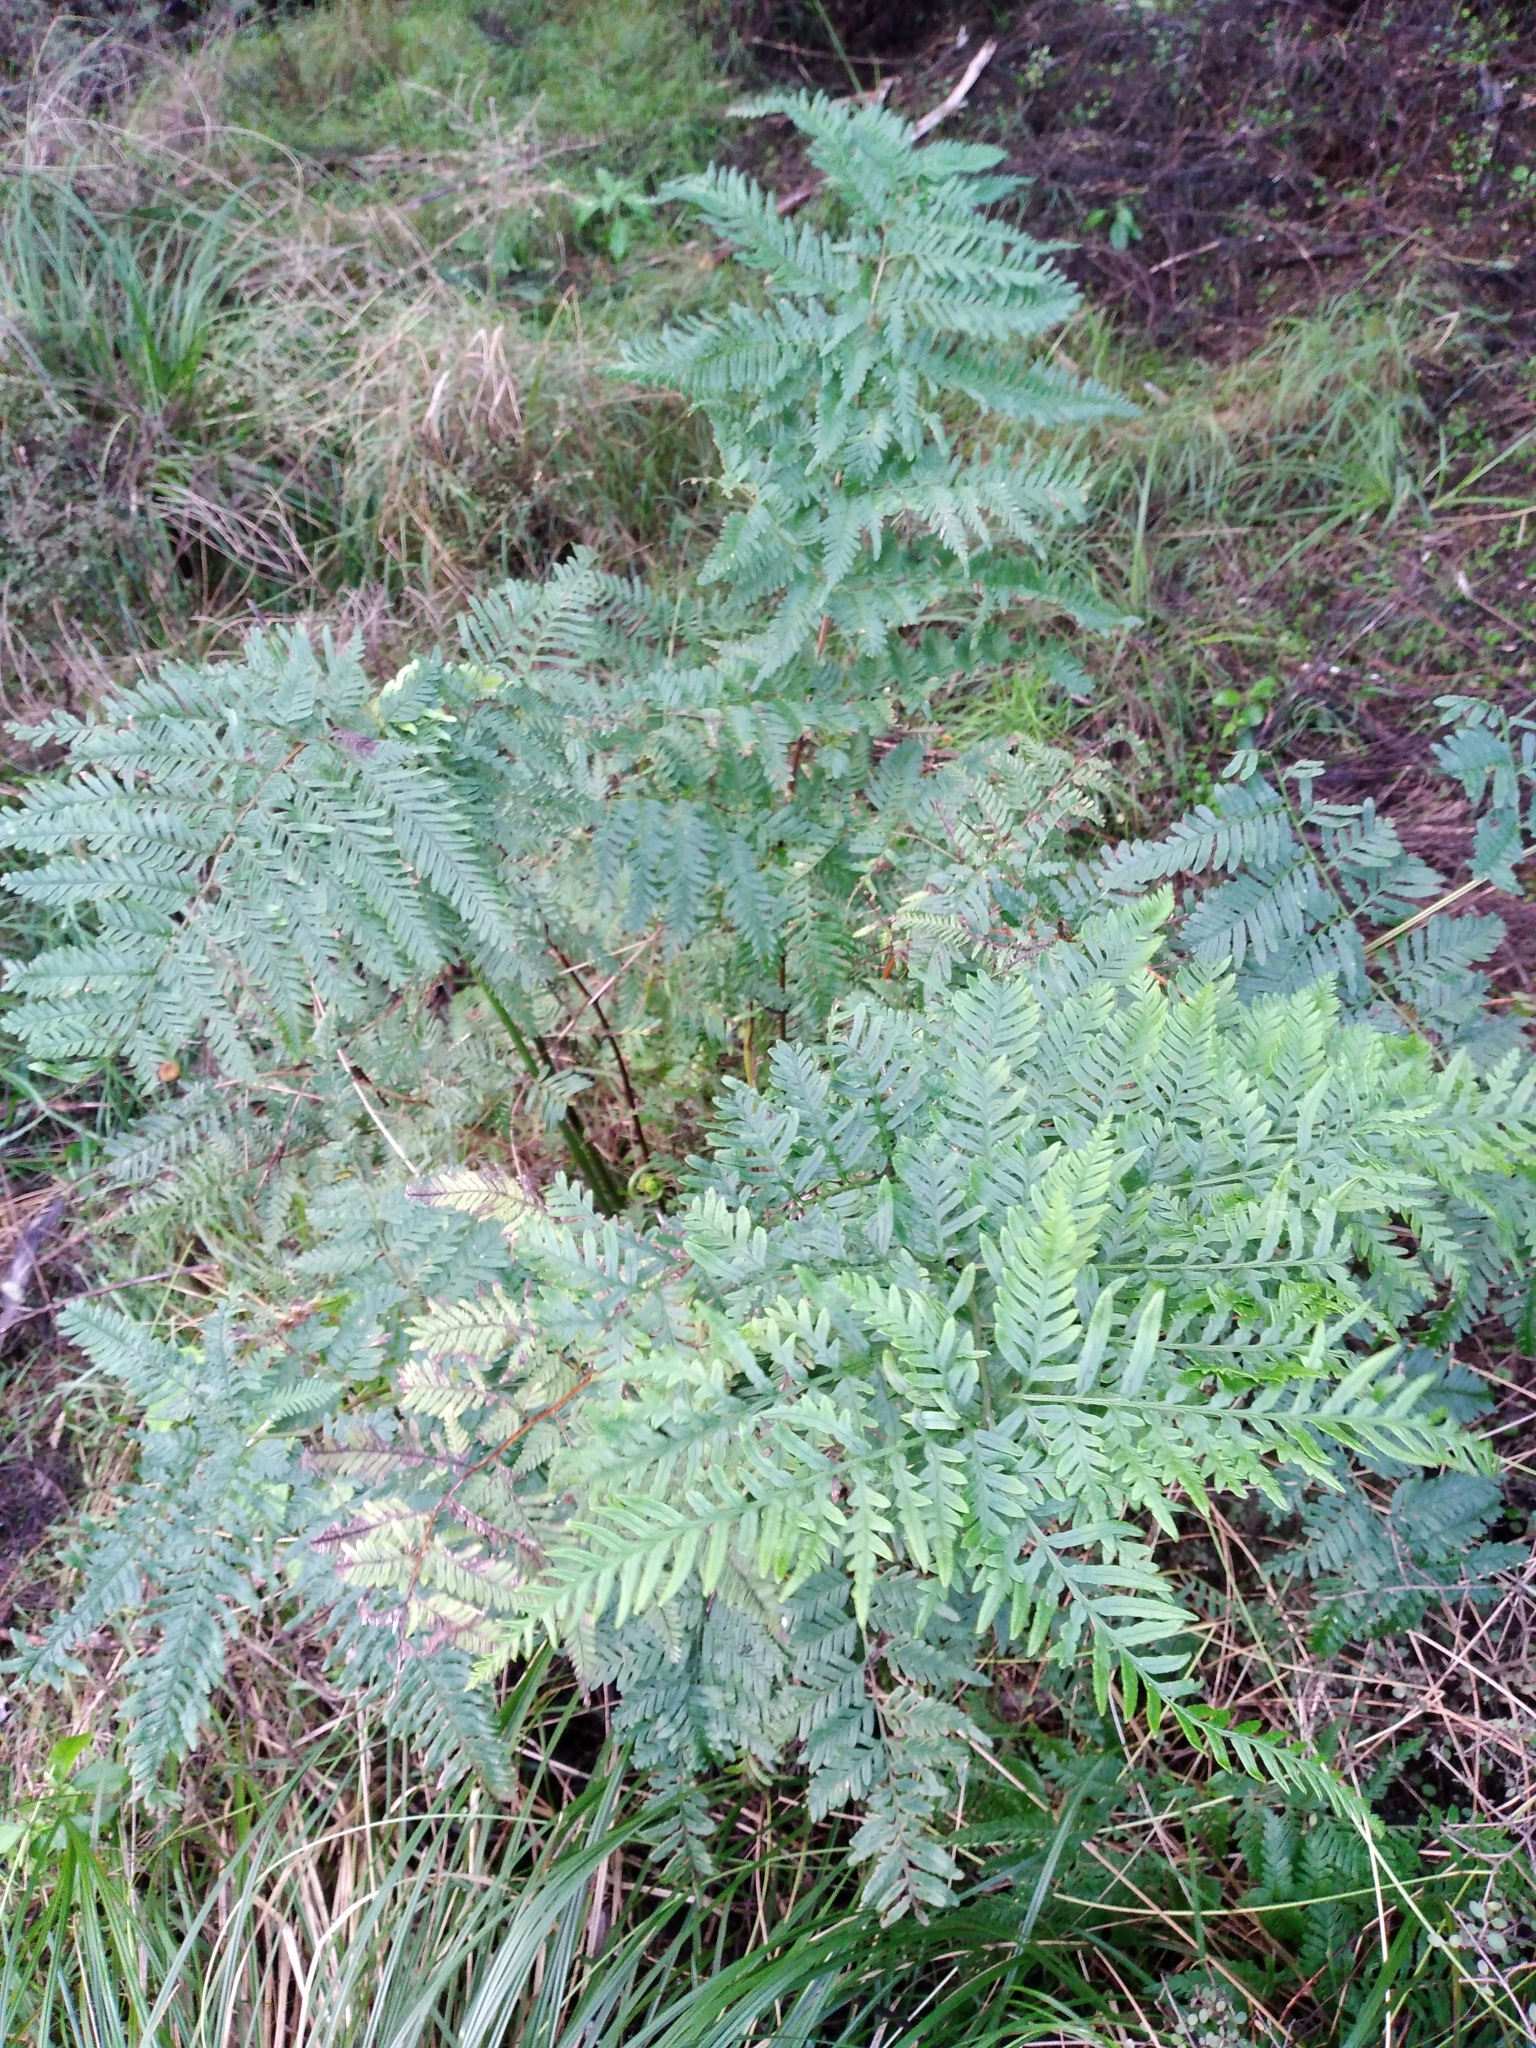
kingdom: Plantae
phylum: Tracheophyta
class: Polypodiopsida
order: Polypodiales
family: Pteridaceae
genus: Pteris
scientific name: Pteris tremula
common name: Australian brake
